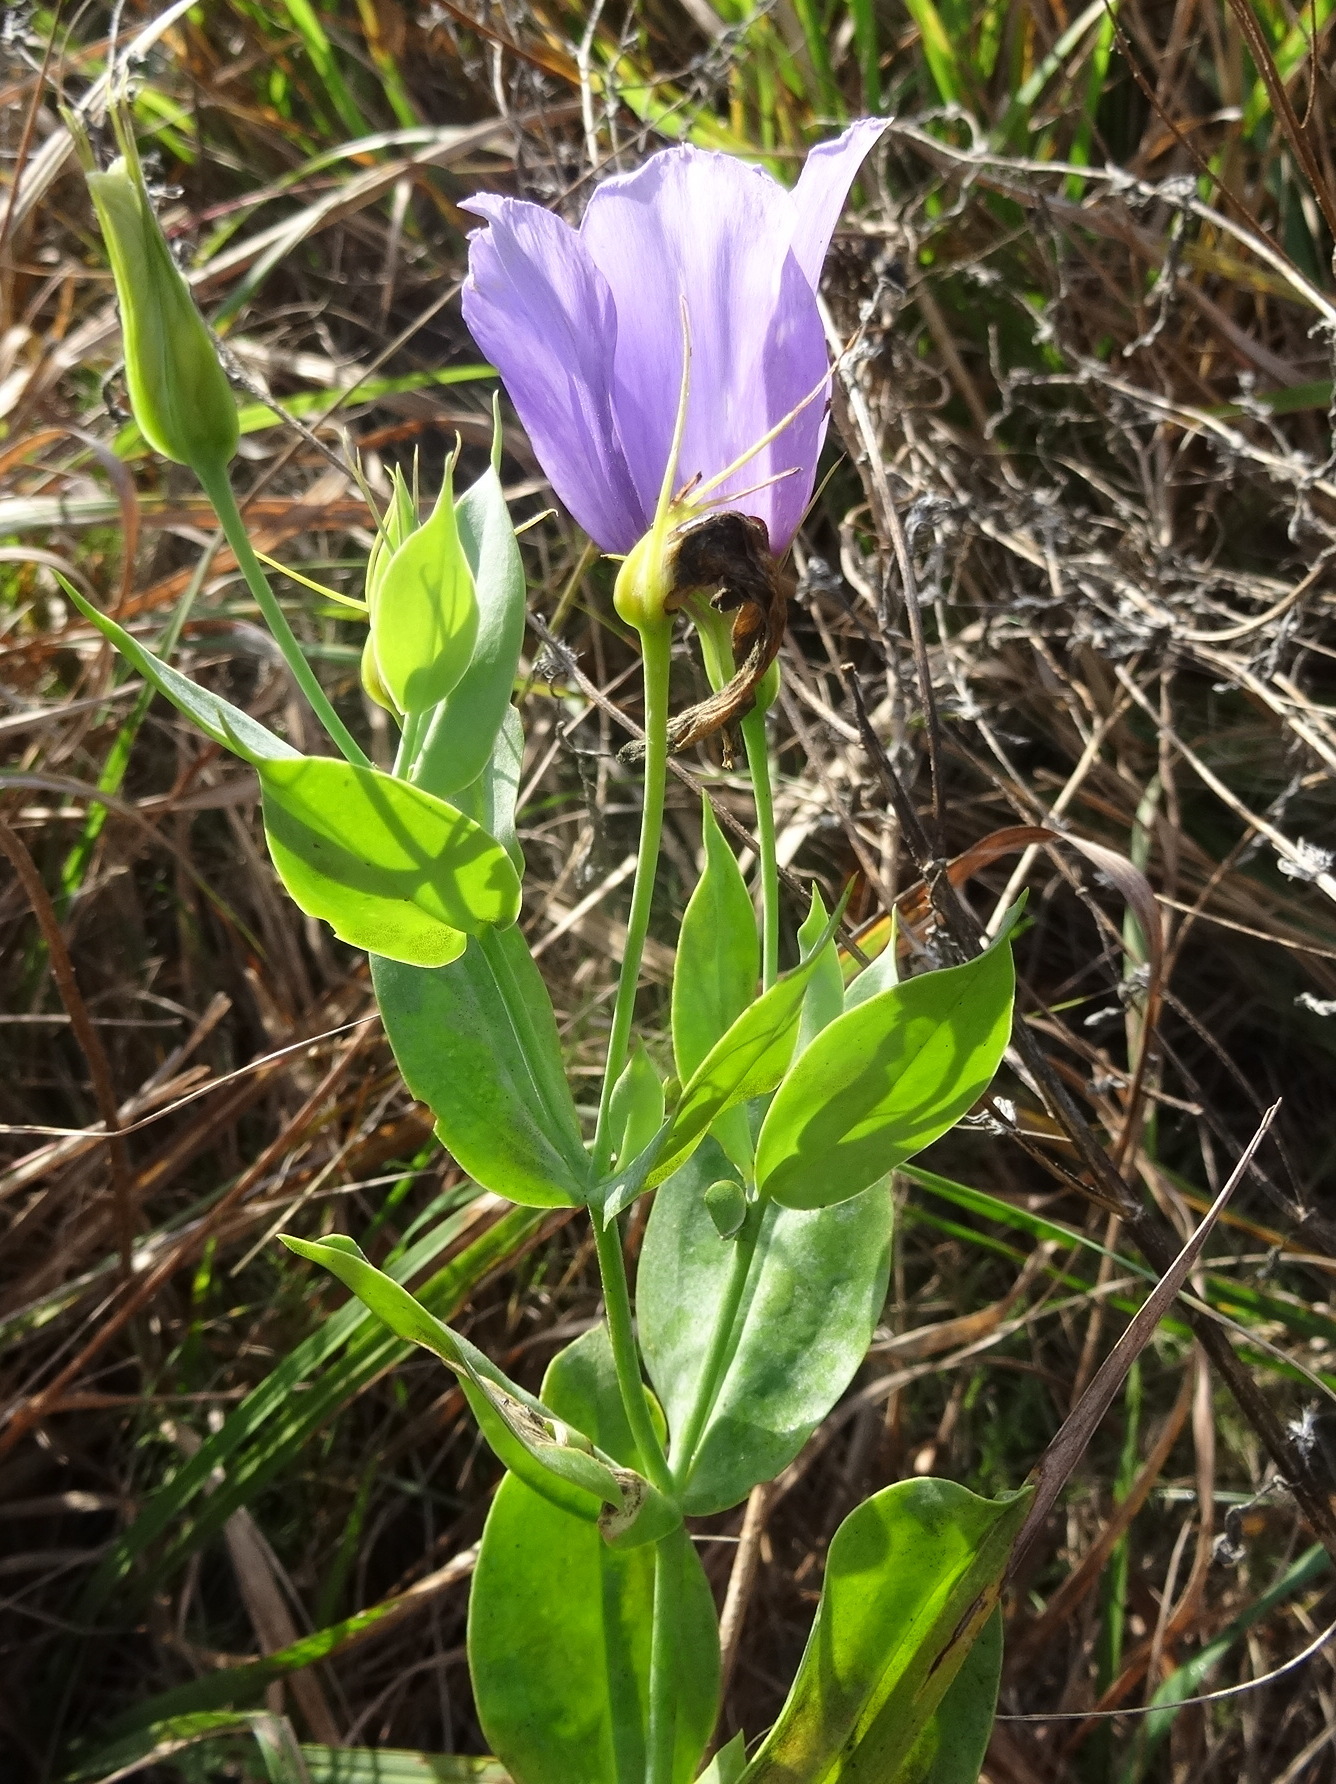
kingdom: Plantae
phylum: Tracheophyta
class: Magnoliopsida
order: Gentianales
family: Gentianaceae
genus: Eustoma
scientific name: Eustoma russellianum
